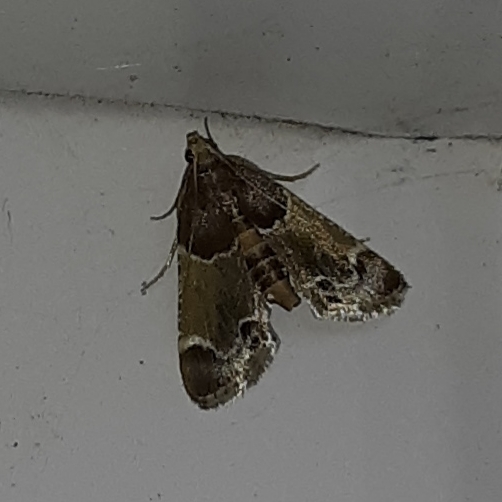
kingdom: Animalia
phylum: Arthropoda
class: Insecta
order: Lepidoptera
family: Pyralidae
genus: Pyralis
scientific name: Pyralis farinalis
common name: Meal moth
